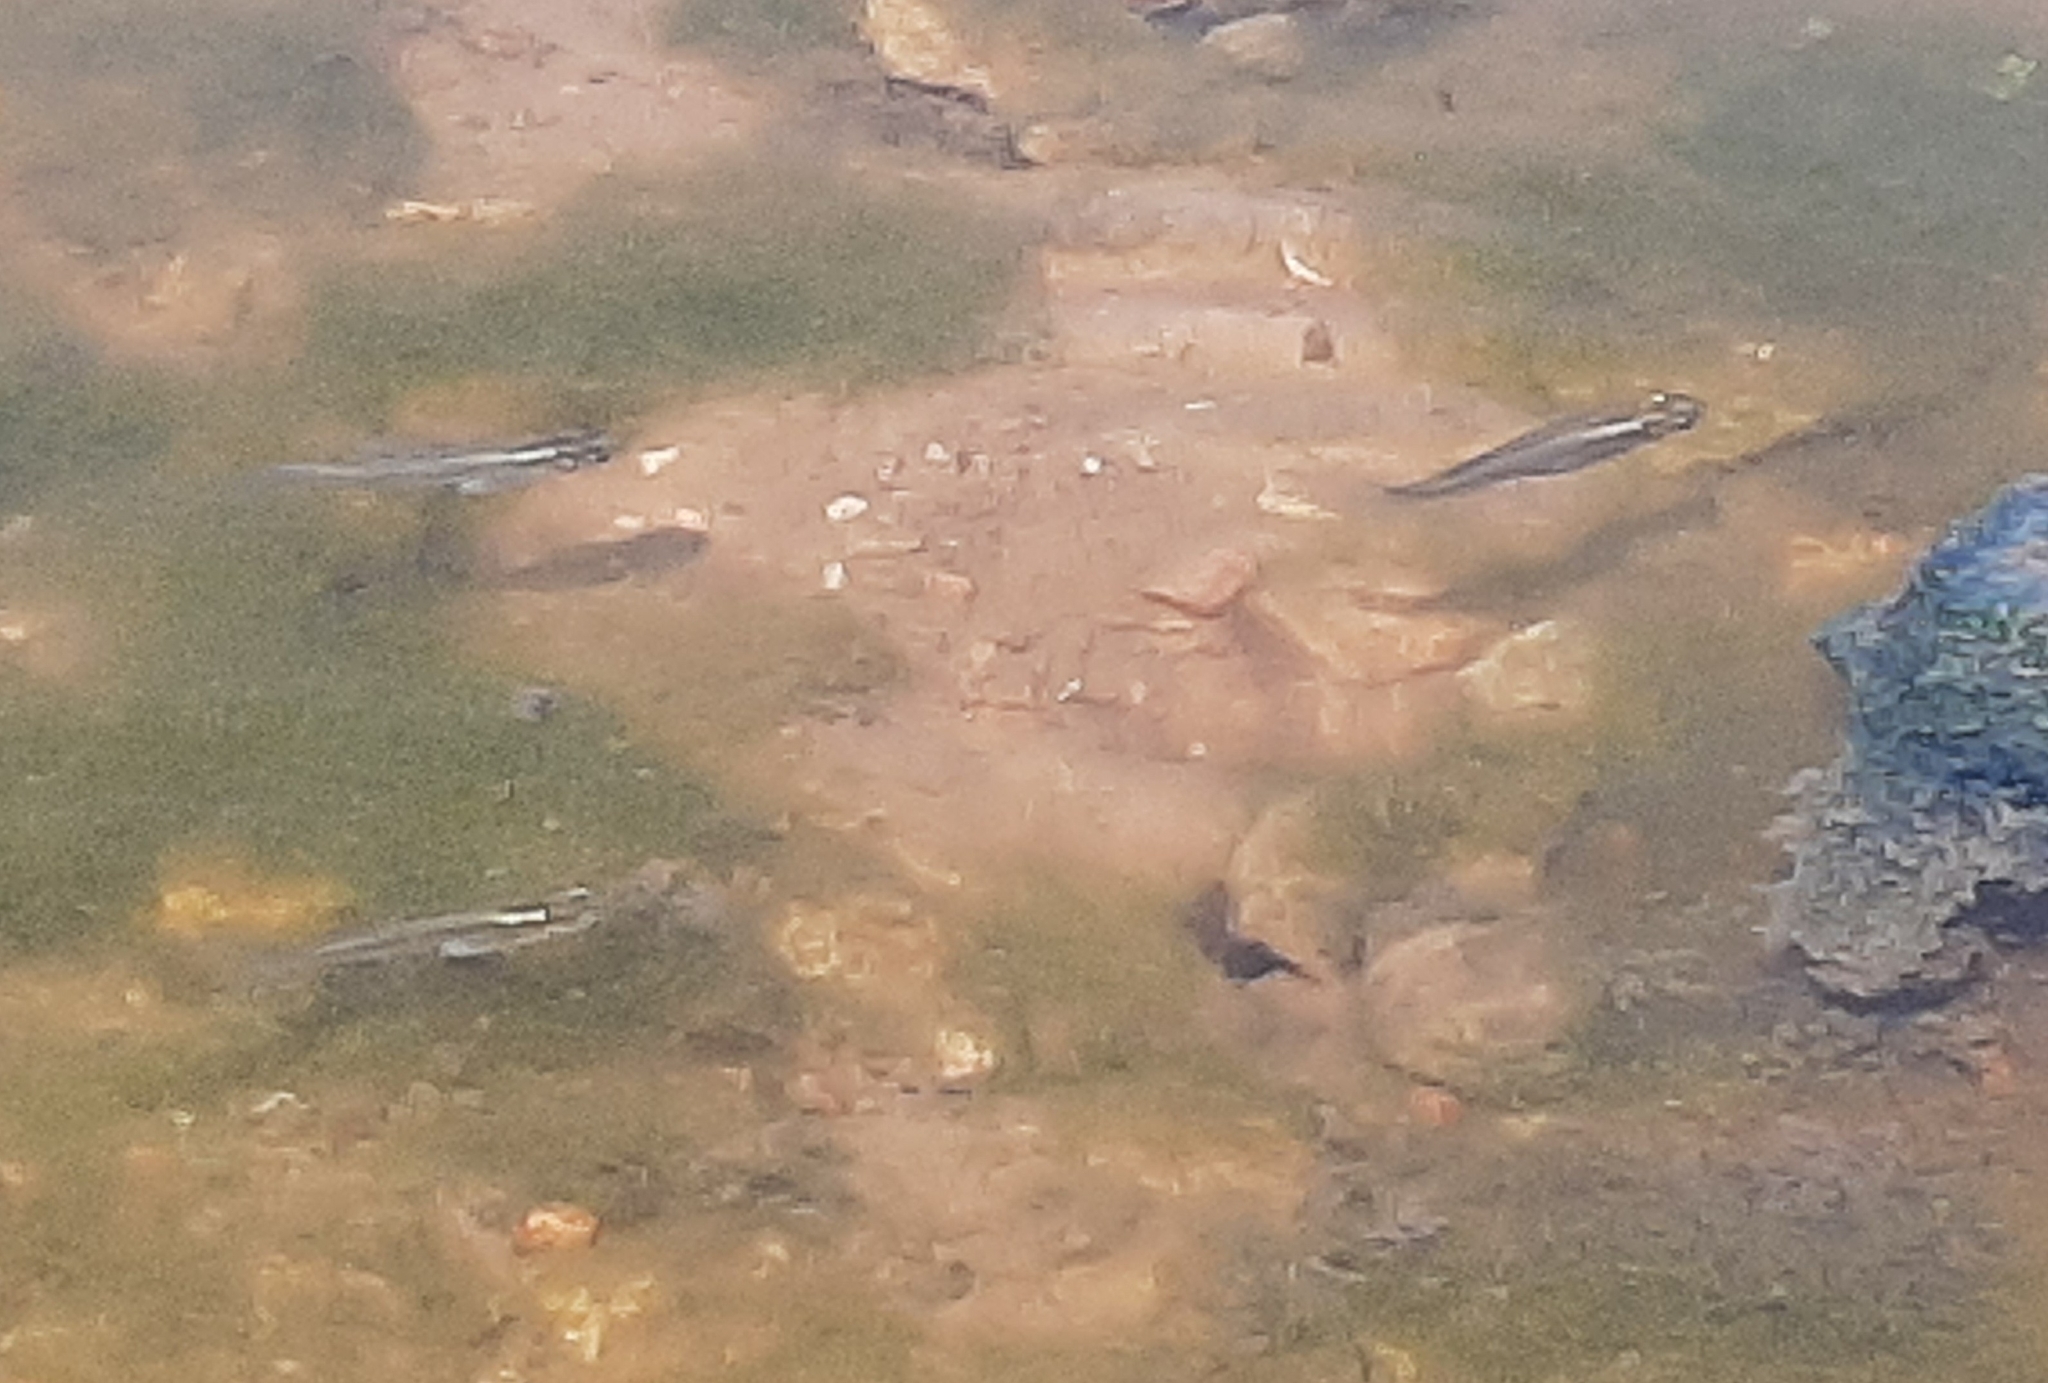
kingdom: Animalia
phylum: Chordata
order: Cyprinodontiformes
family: Poeciliidae
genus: Gambusia
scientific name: Gambusia affinis
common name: Mosquitofish
